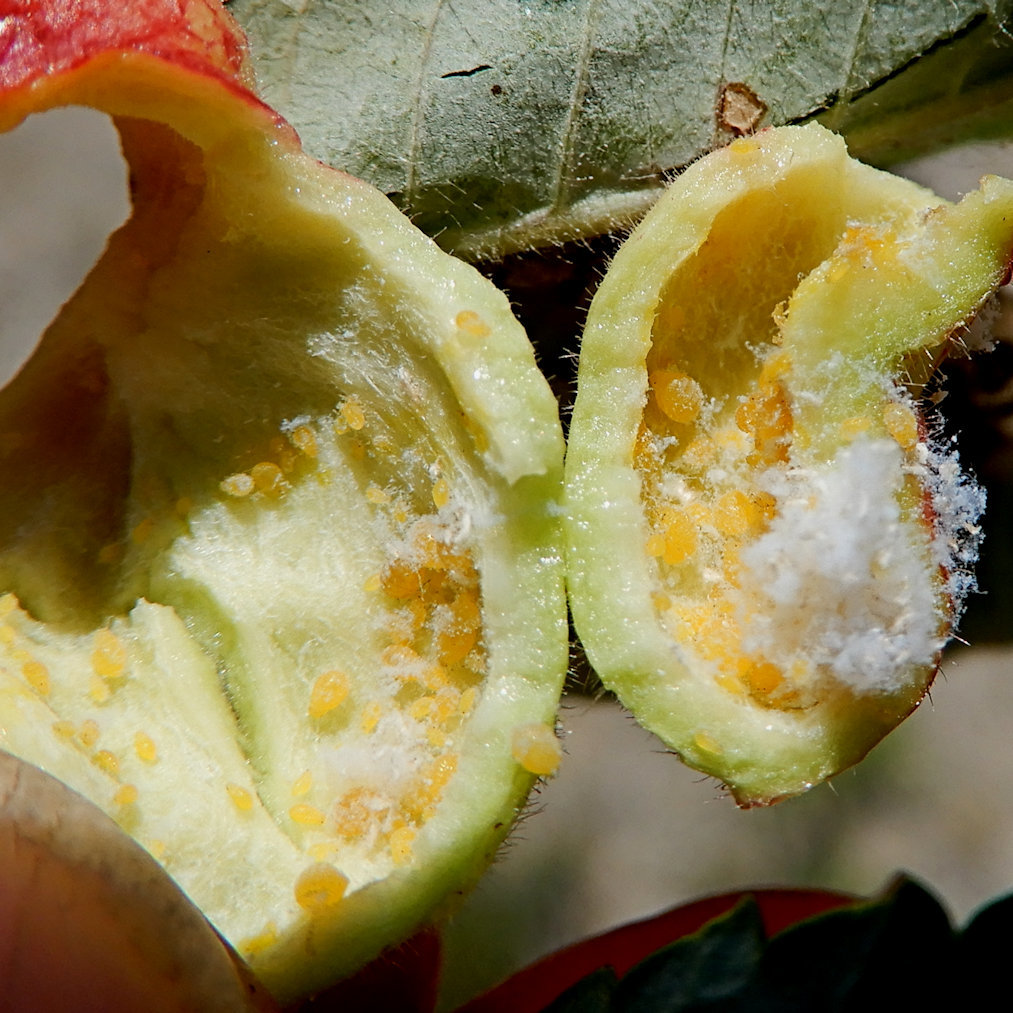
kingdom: Animalia
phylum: Arthropoda
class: Insecta
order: Hemiptera
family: Aphididae
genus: Melaphis
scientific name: Melaphis rhois
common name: Sumac gall aphid
